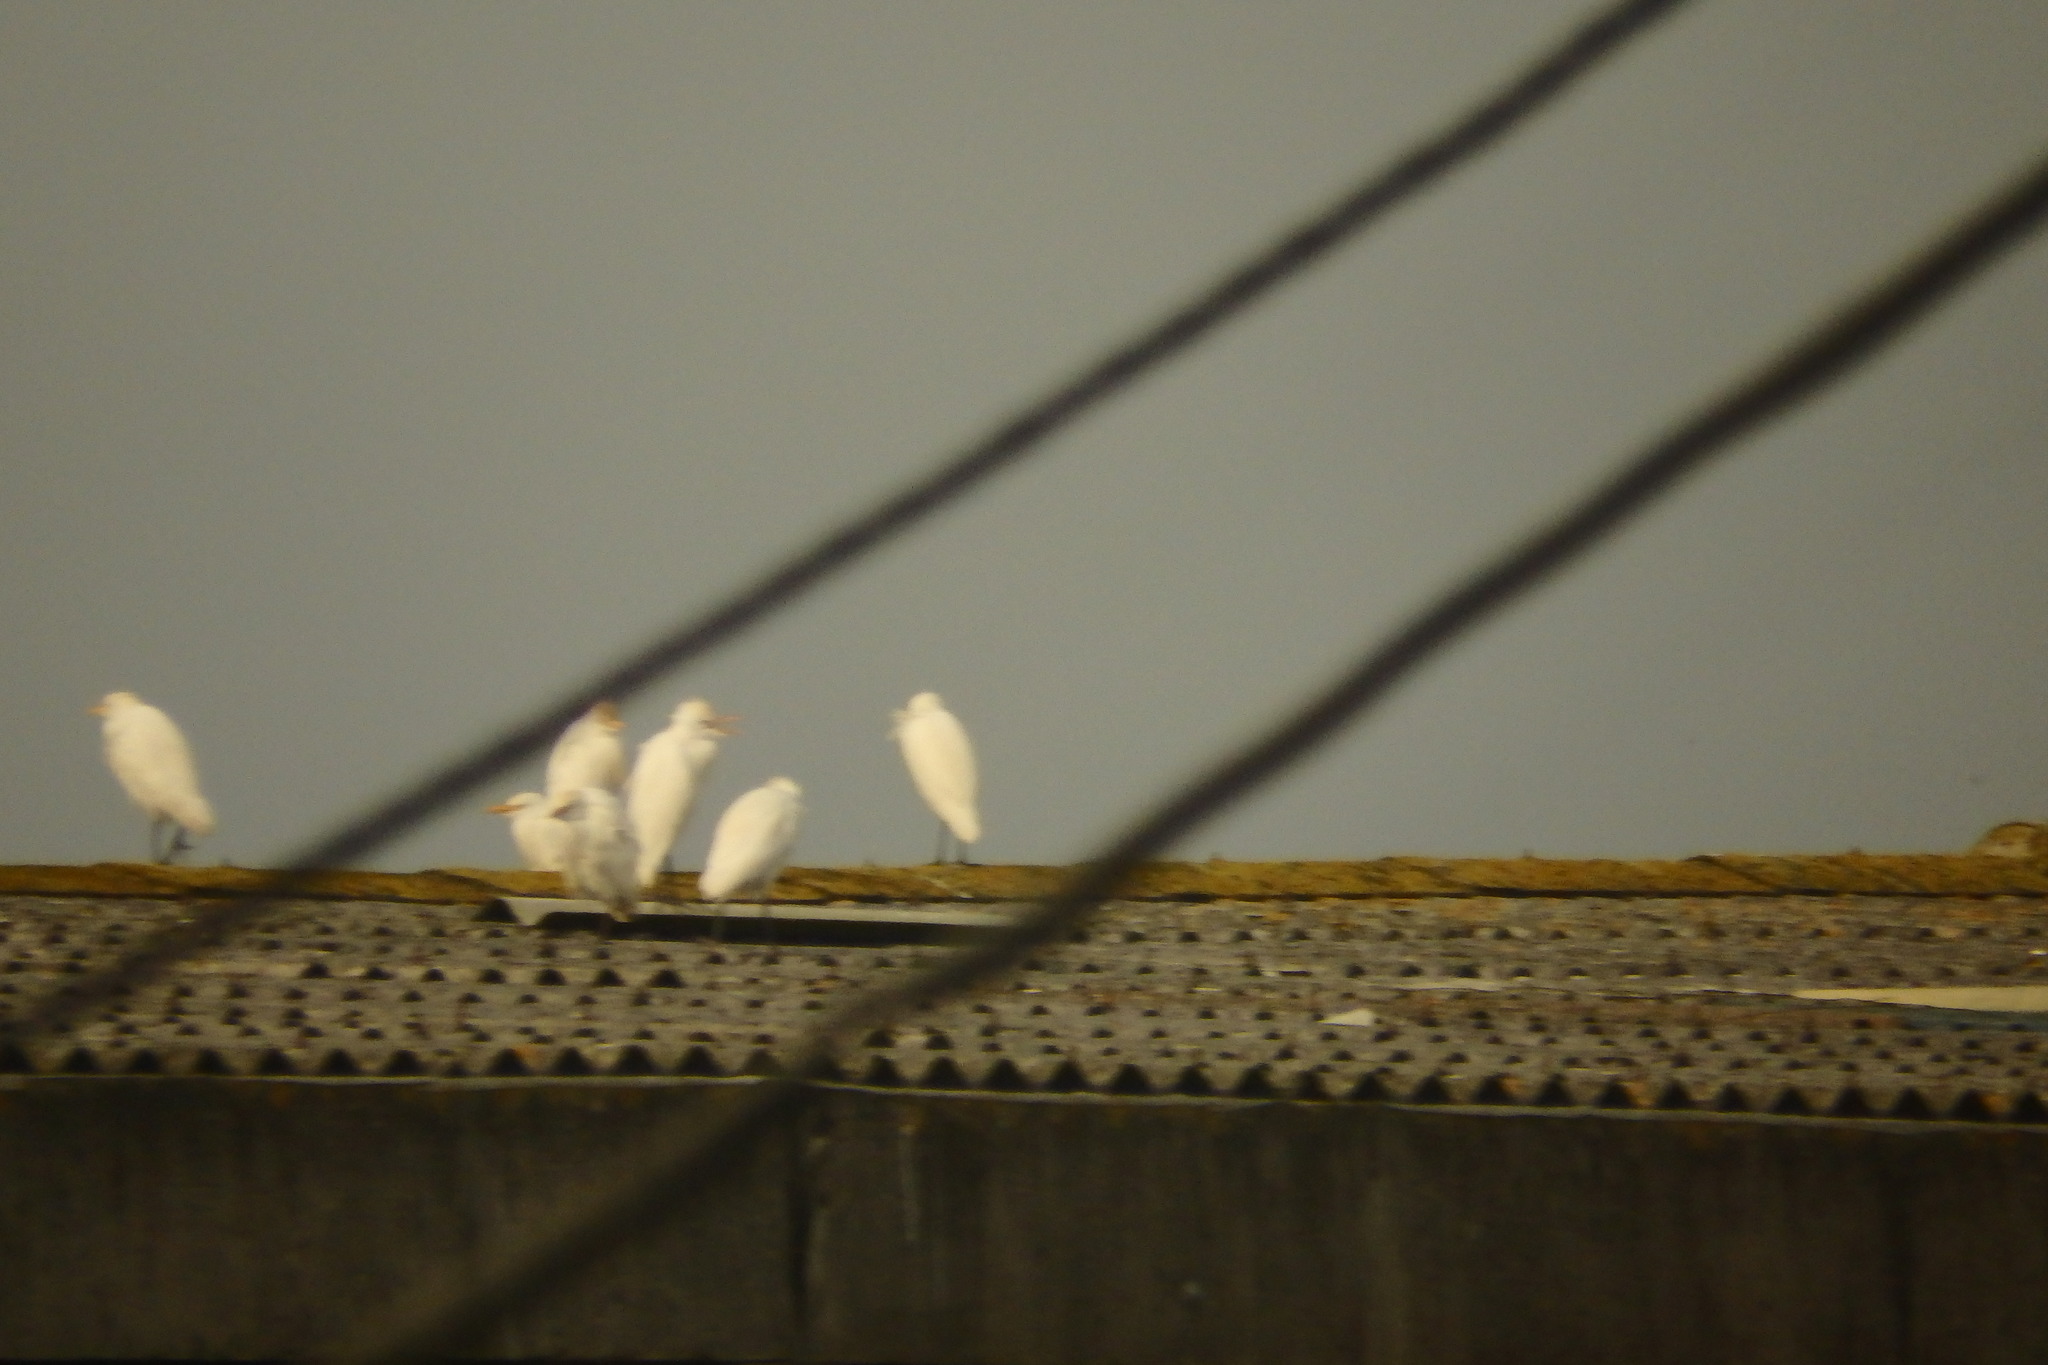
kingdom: Animalia
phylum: Chordata
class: Aves
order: Pelecaniformes
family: Ardeidae
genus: Bubulcus
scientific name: Bubulcus ibis
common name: Cattle egret
